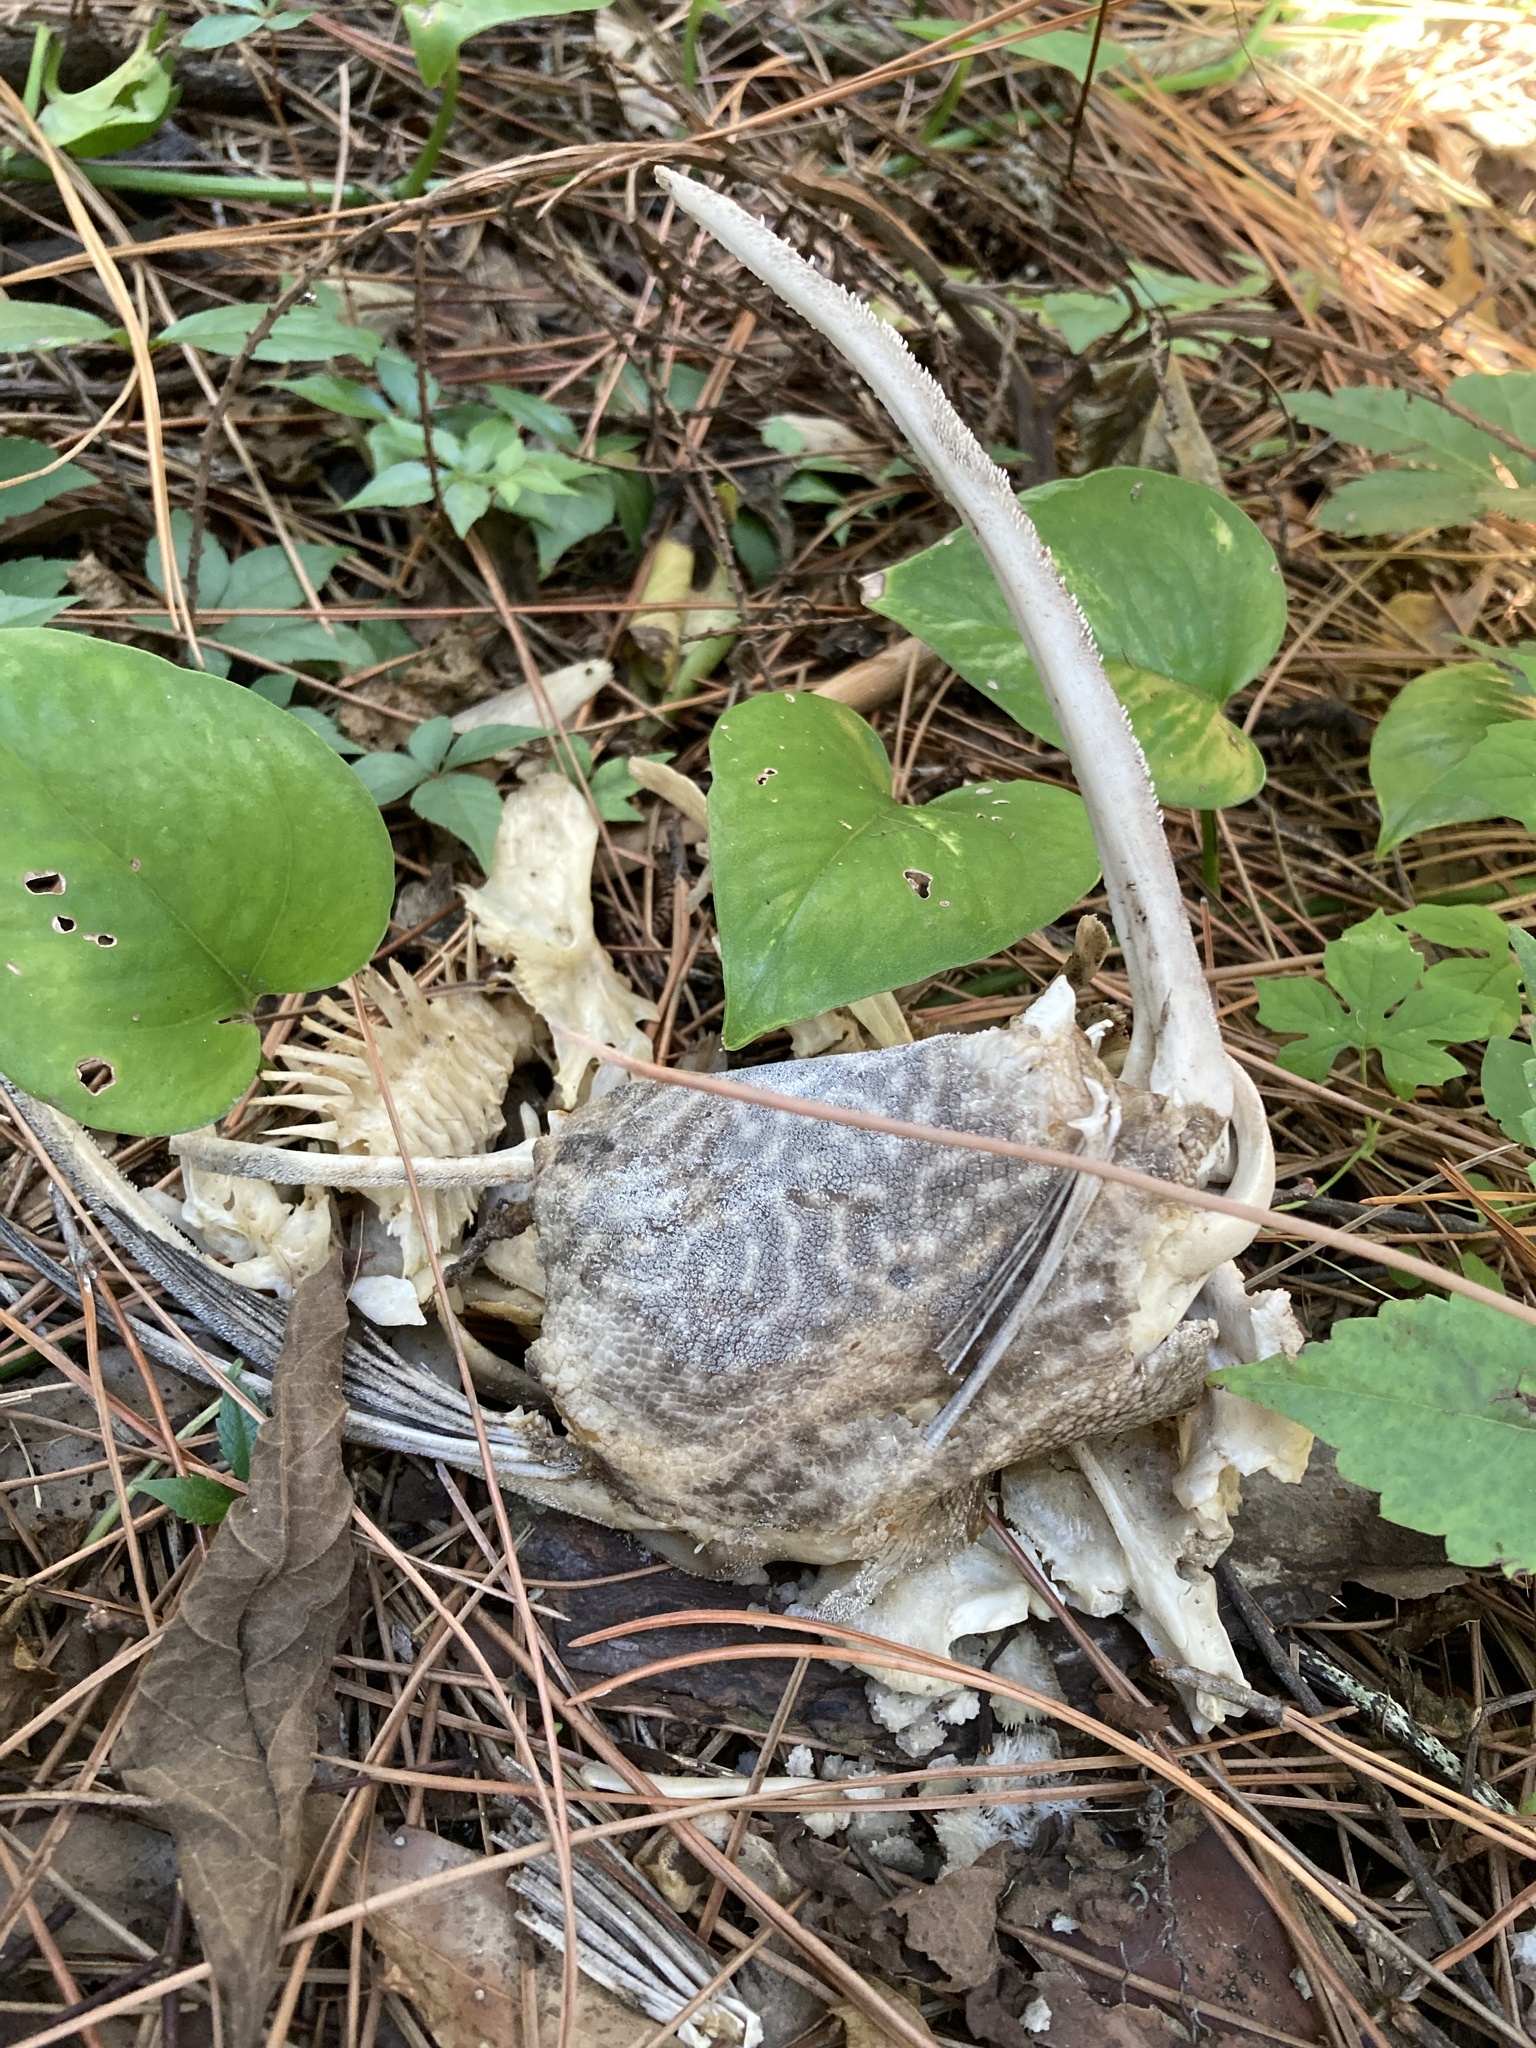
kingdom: Animalia
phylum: Chordata
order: Siluriformes
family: Loricariidae
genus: Pterygoplichthys
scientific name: Pterygoplichthys
